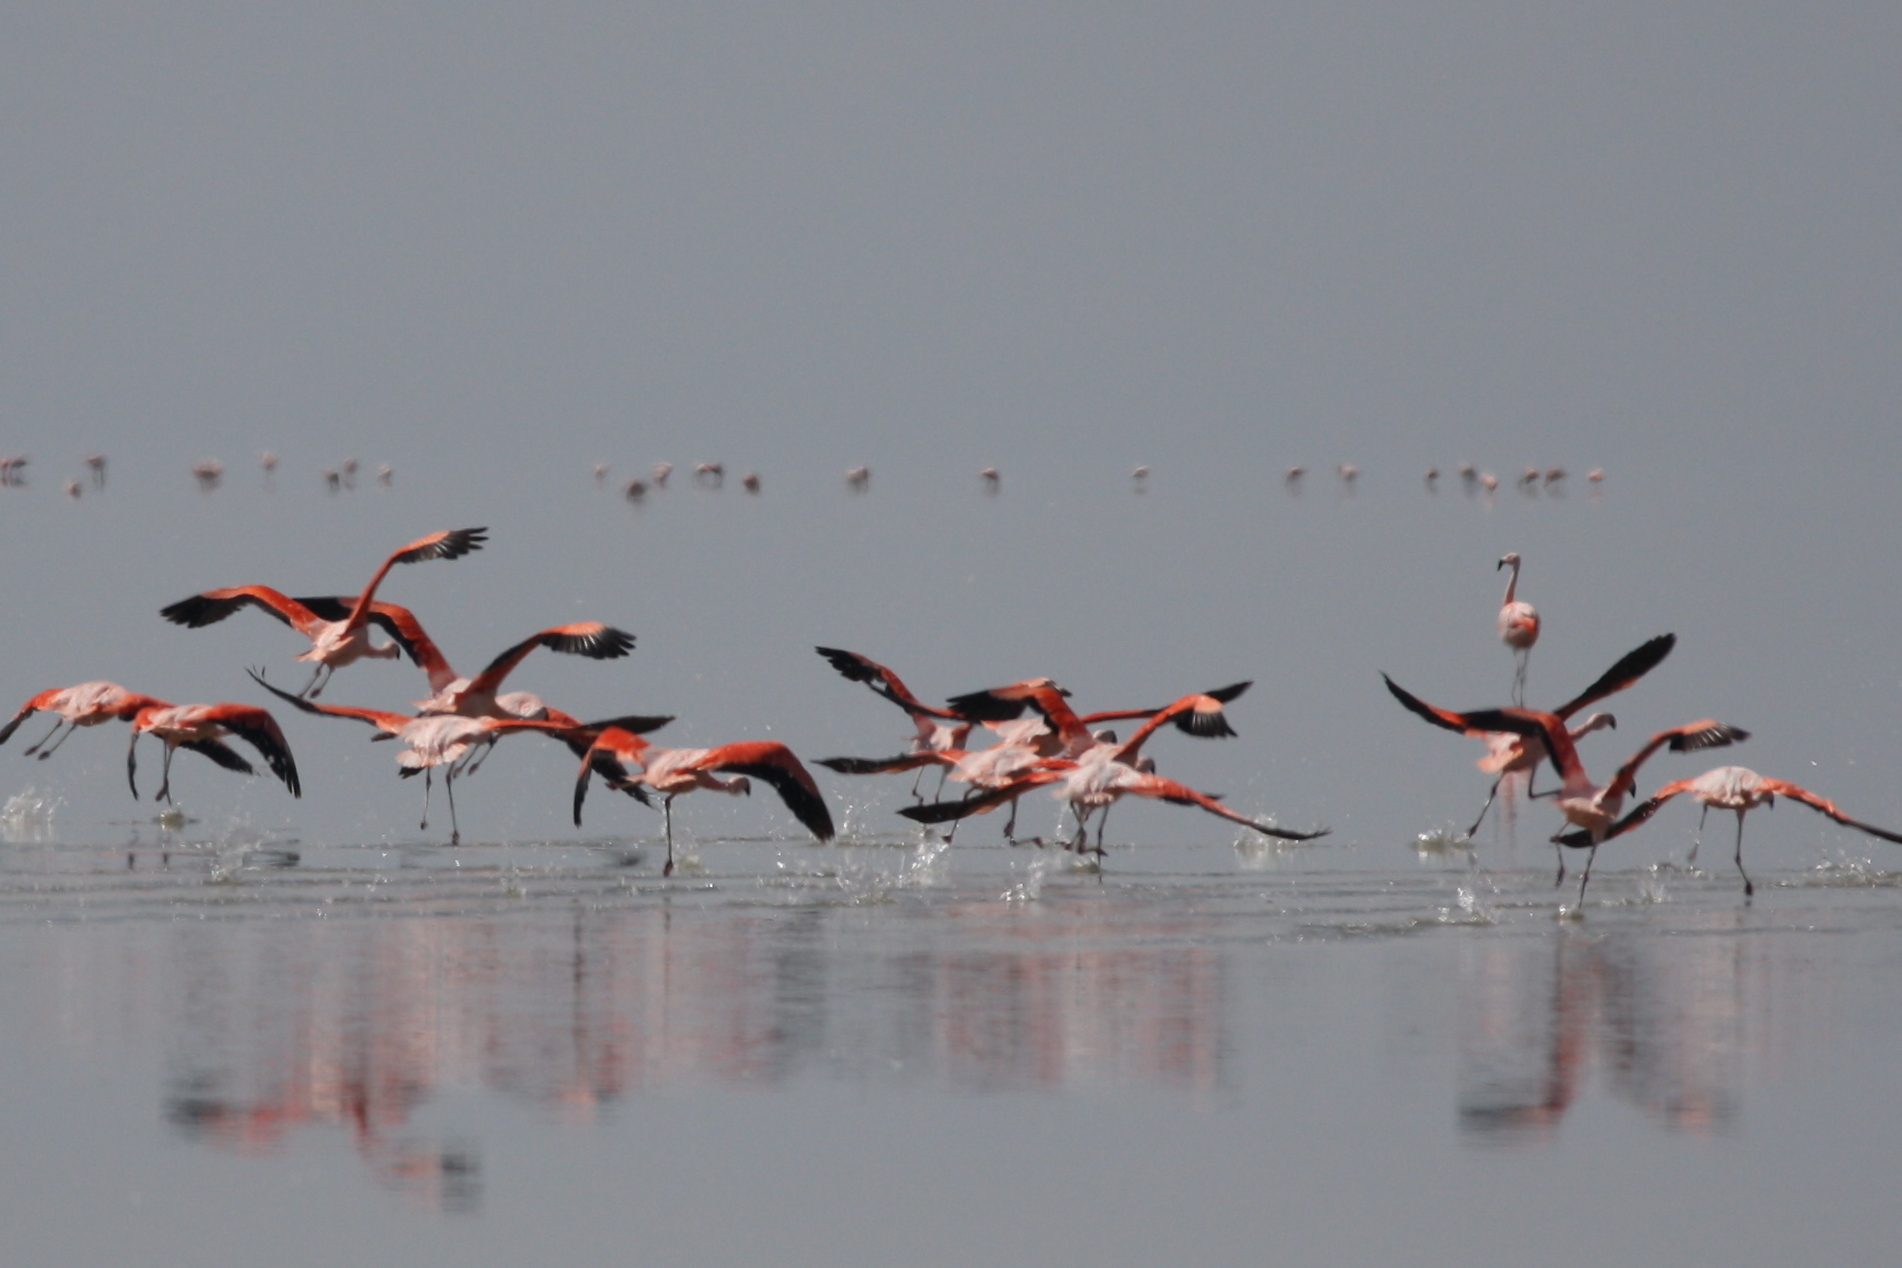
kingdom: Animalia
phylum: Chordata
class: Aves
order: Phoenicopteriformes
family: Phoenicopteridae
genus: Phoenicopterus
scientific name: Phoenicopterus chilensis
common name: Chilean flamingo
